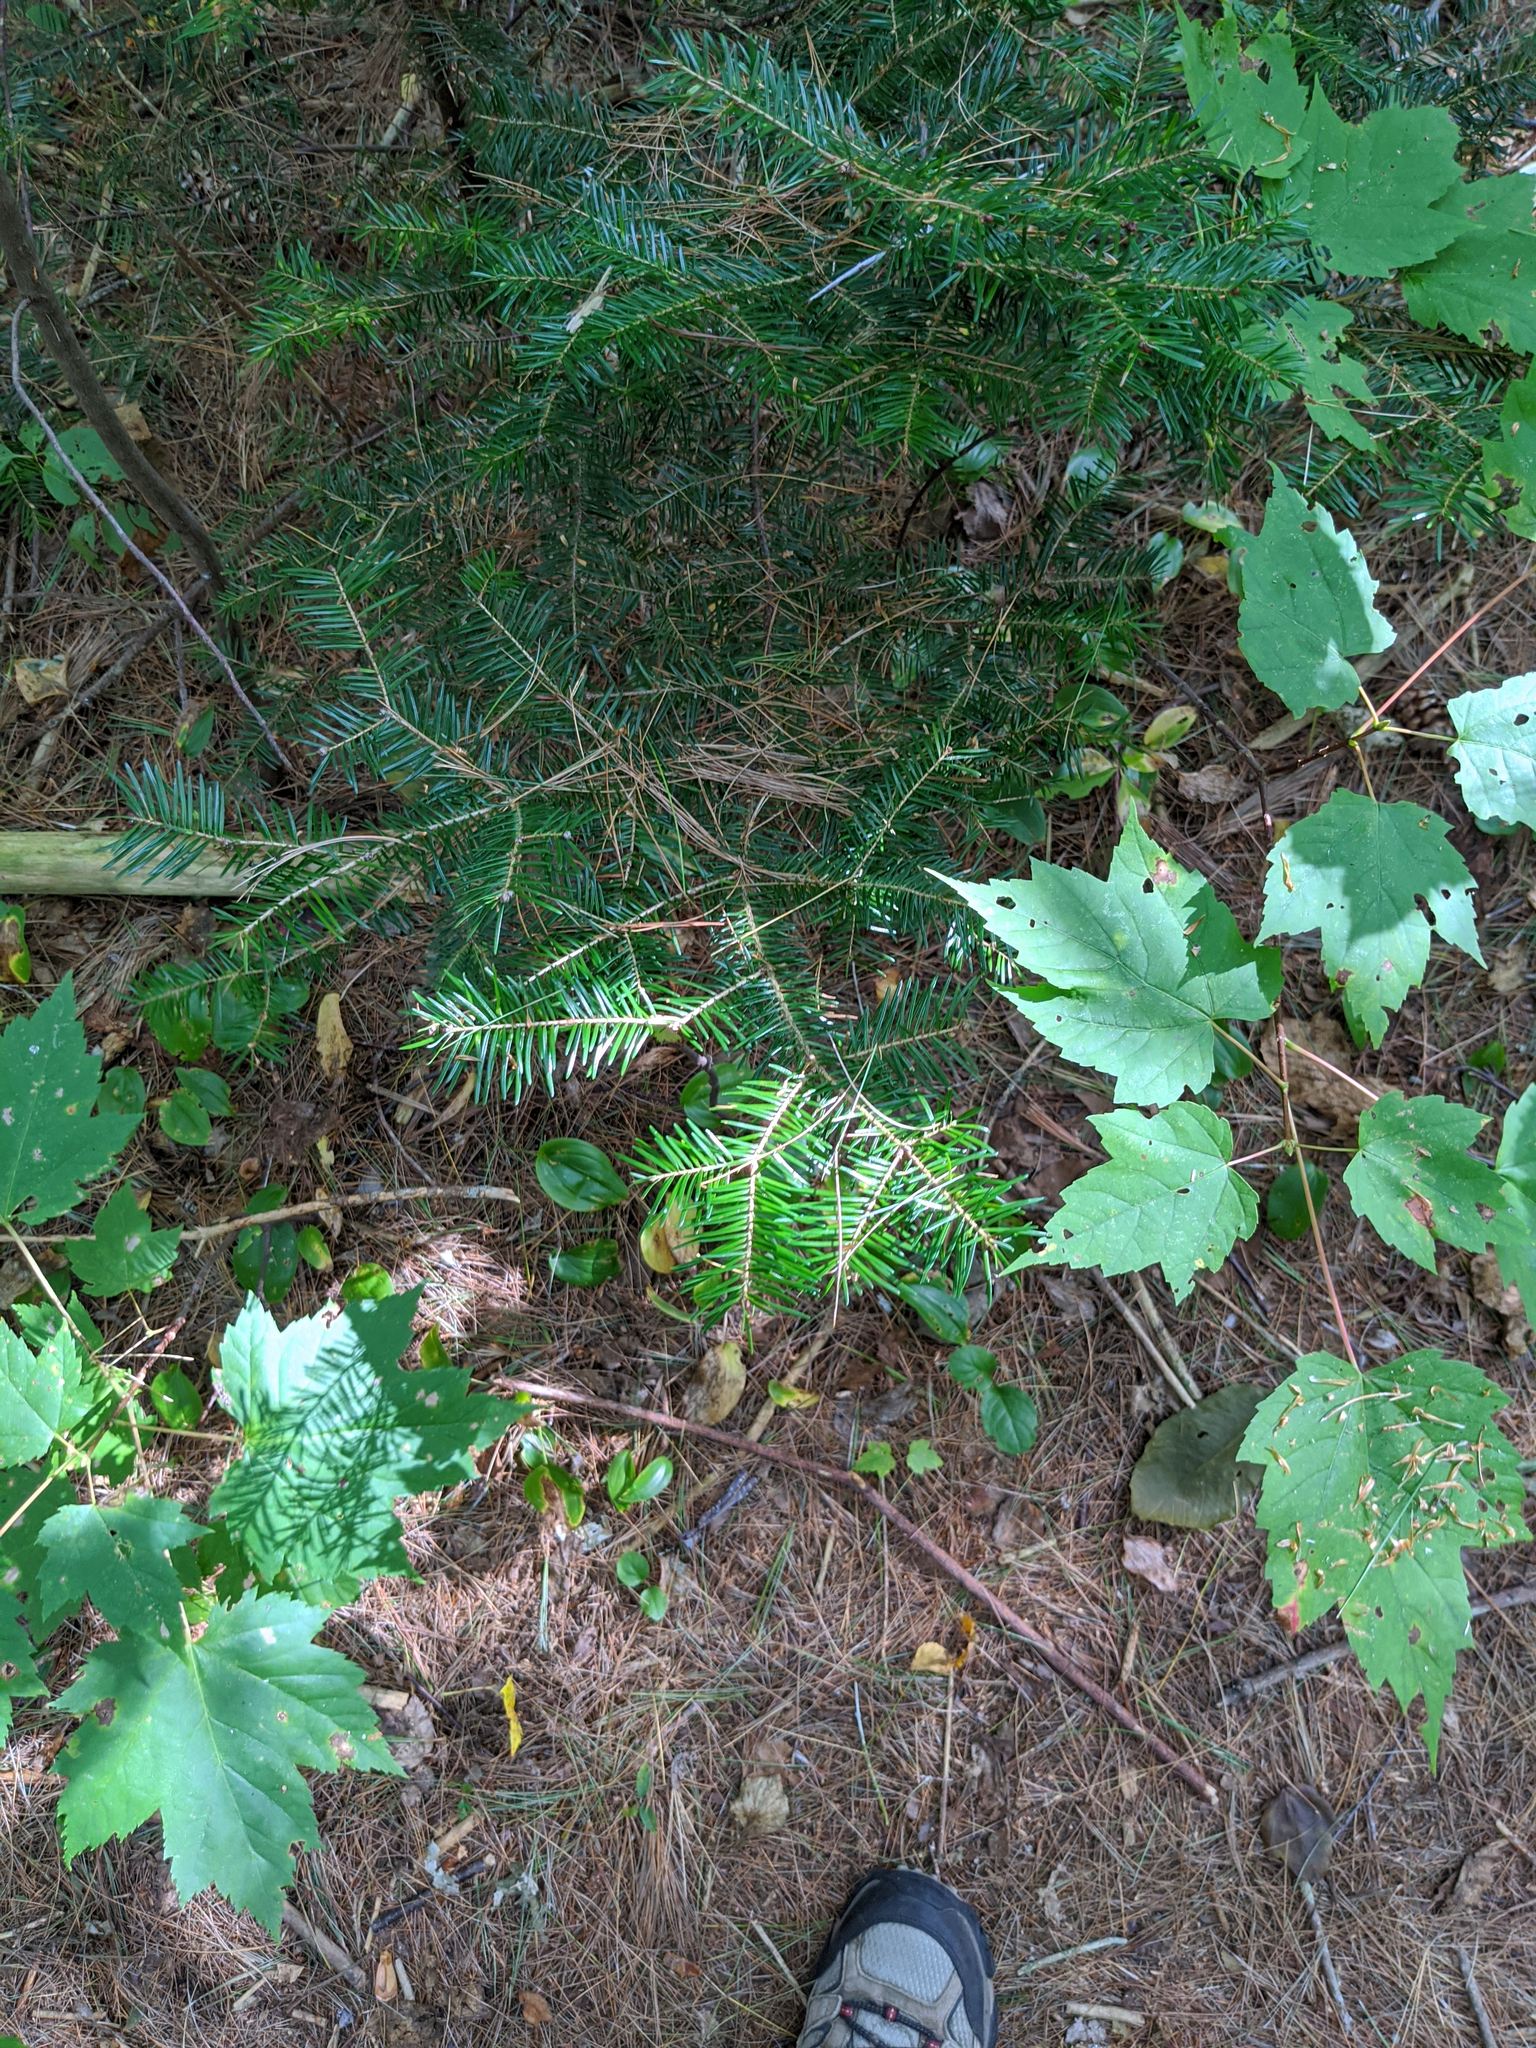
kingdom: Plantae
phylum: Tracheophyta
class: Pinopsida
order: Pinales
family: Pinaceae
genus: Abies
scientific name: Abies balsamea
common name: Balsam fir
